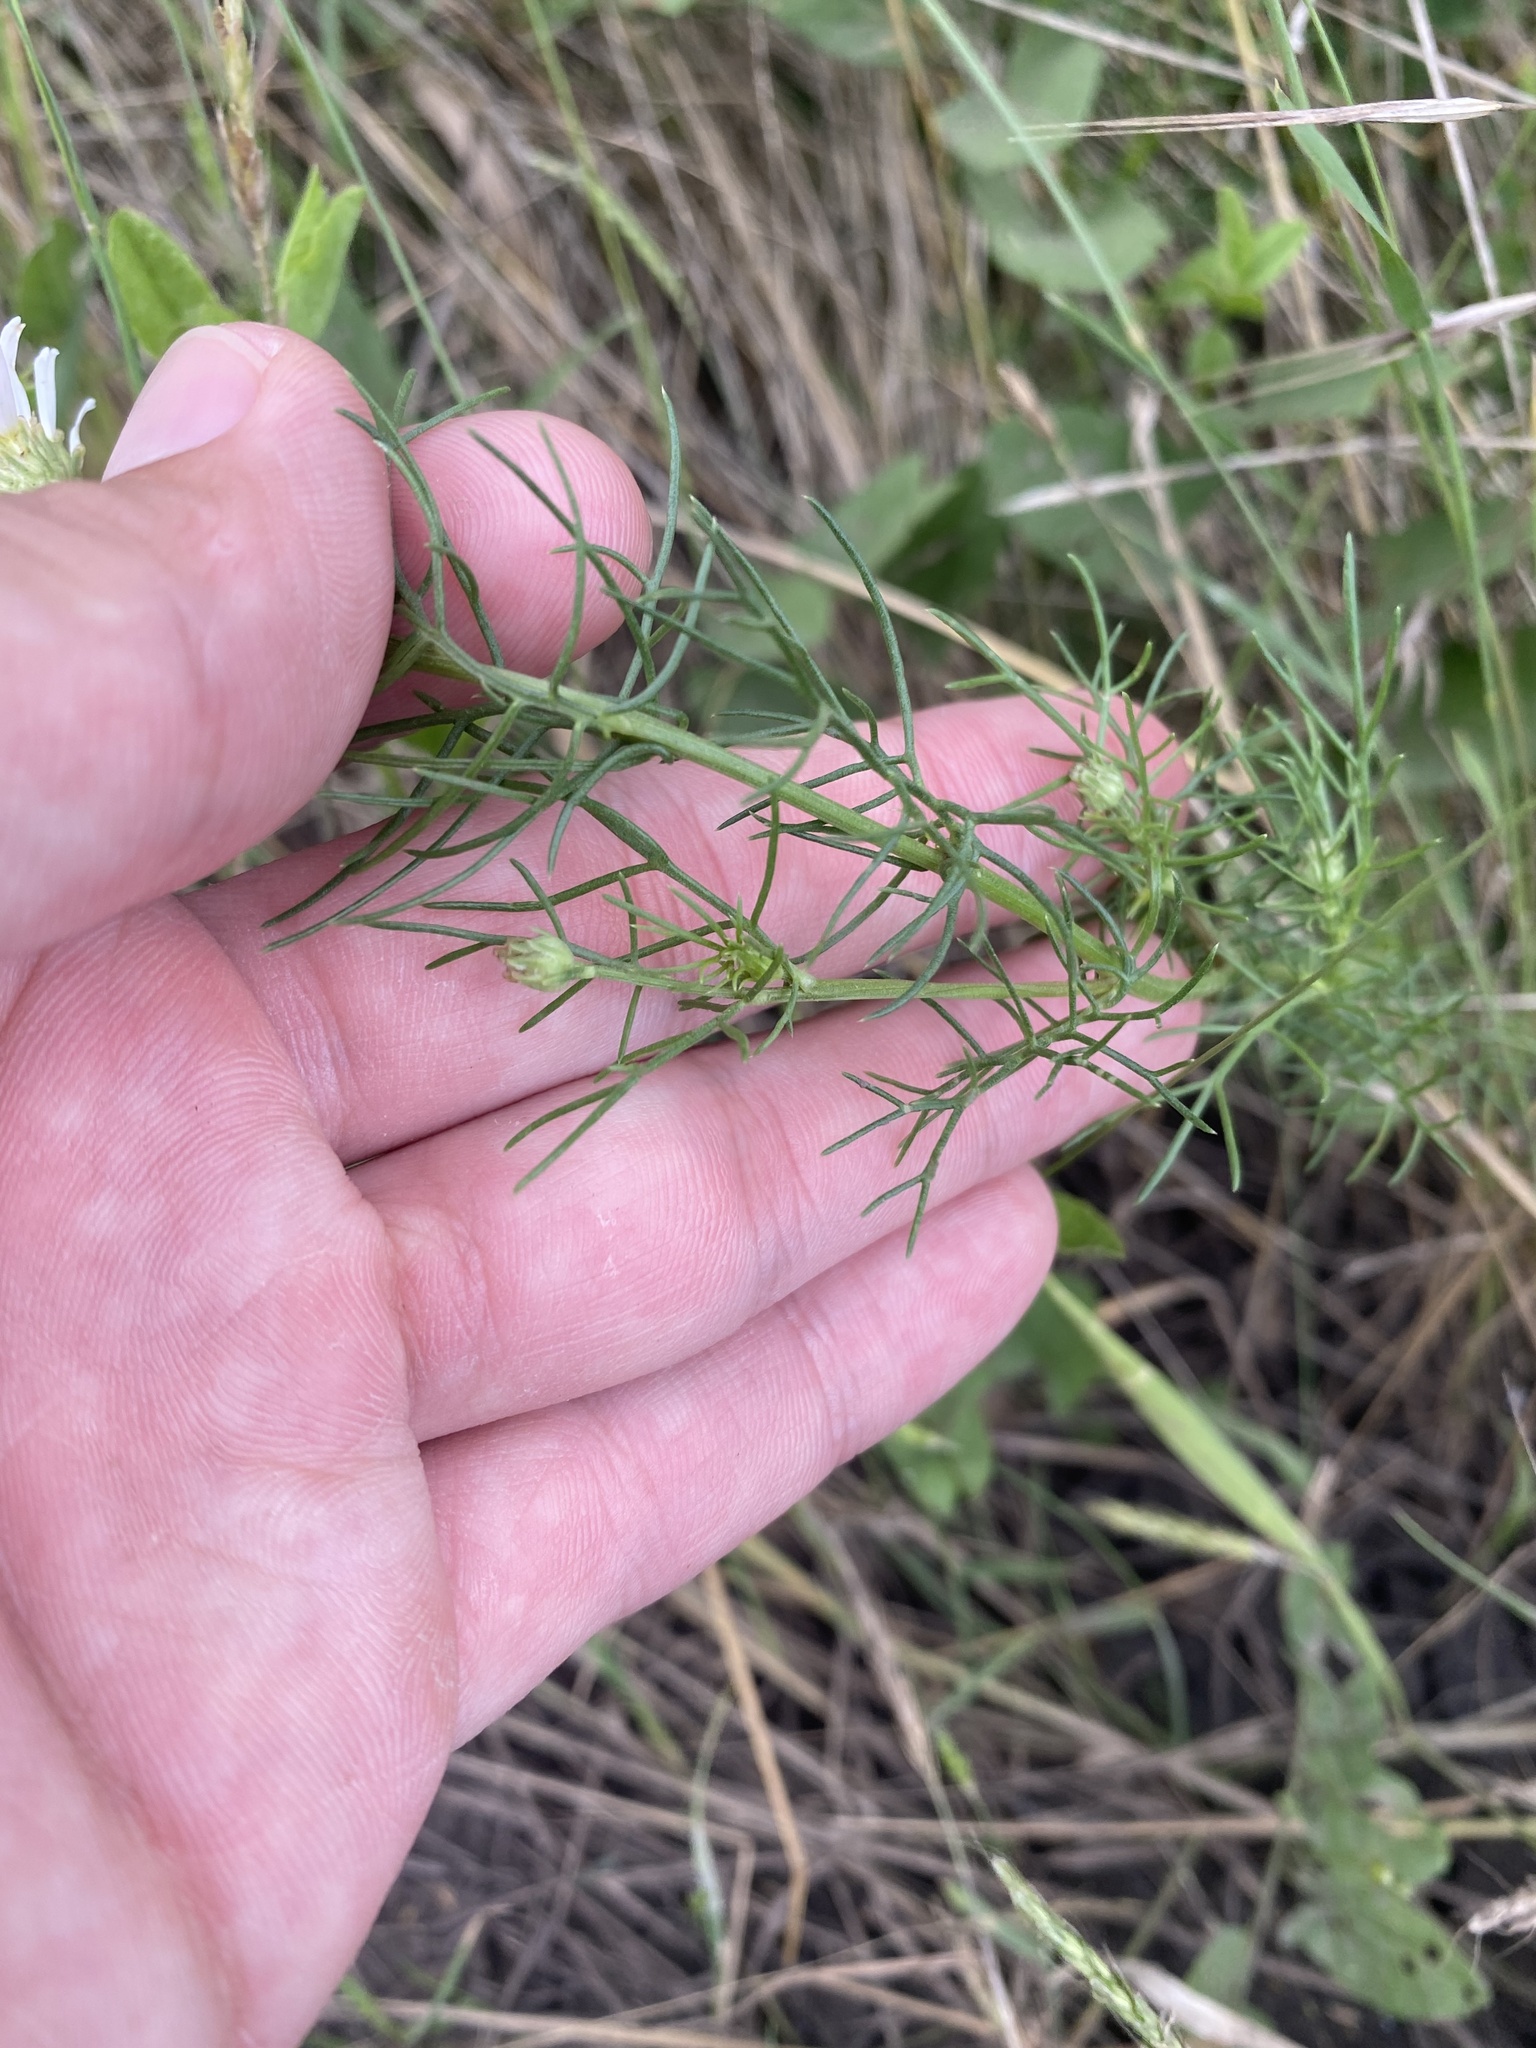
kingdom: Plantae
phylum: Tracheophyta
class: Magnoliopsida
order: Asterales
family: Asteraceae
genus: Tripleurospermum
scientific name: Tripleurospermum inodorum
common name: Scentless mayweed
